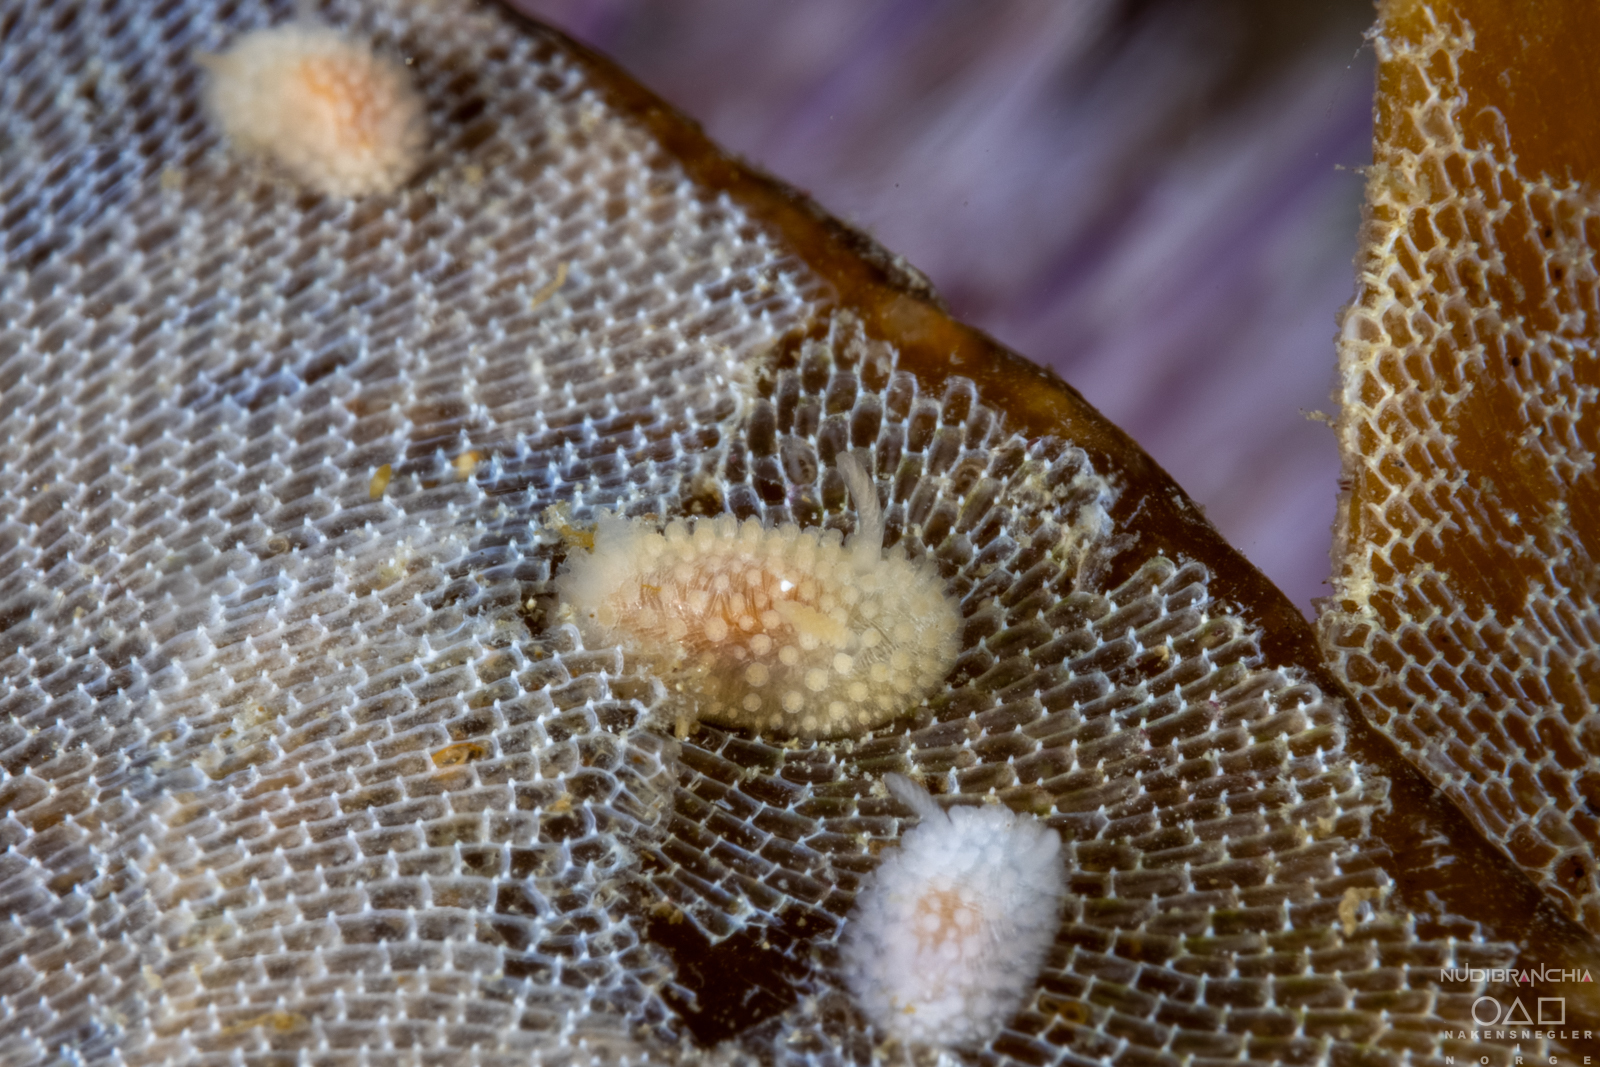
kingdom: Animalia
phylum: Mollusca
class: Gastropoda
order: Nudibranchia
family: Onchidorididae
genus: Onchidoris
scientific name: Onchidoris muricata
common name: Rough doris
